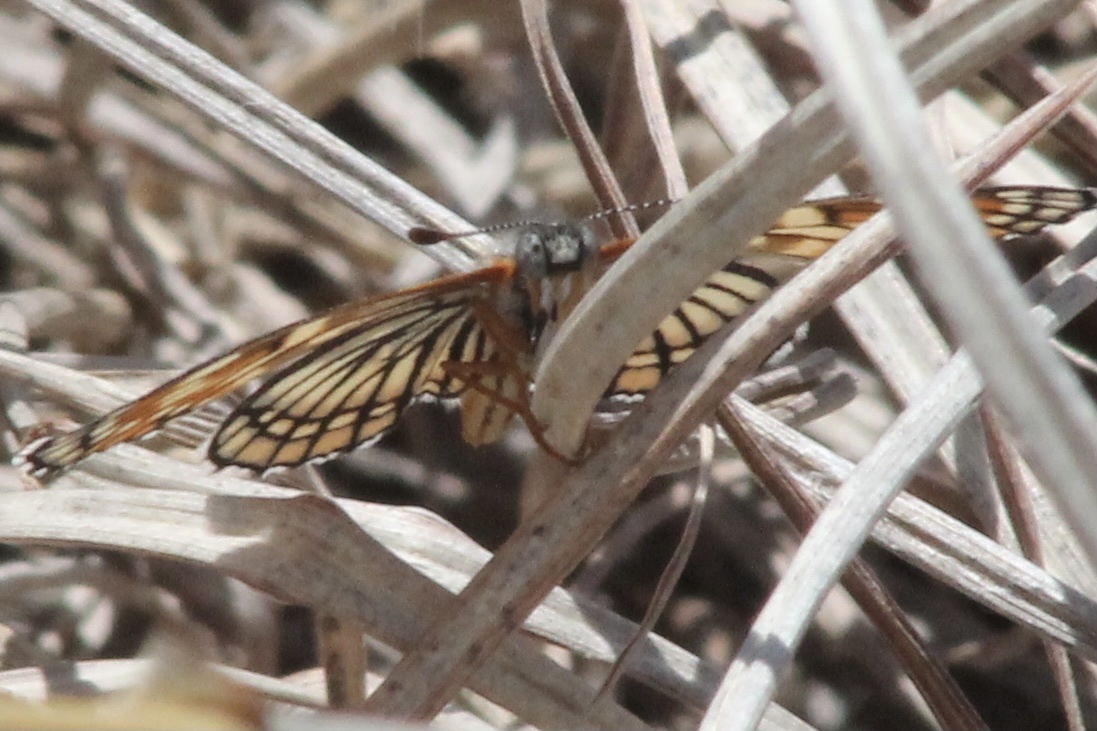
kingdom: Animalia
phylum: Arthropoda
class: Insecta
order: Lepidoptera
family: Nymphalidae
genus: Thessalia
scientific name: Thessalia leanira
